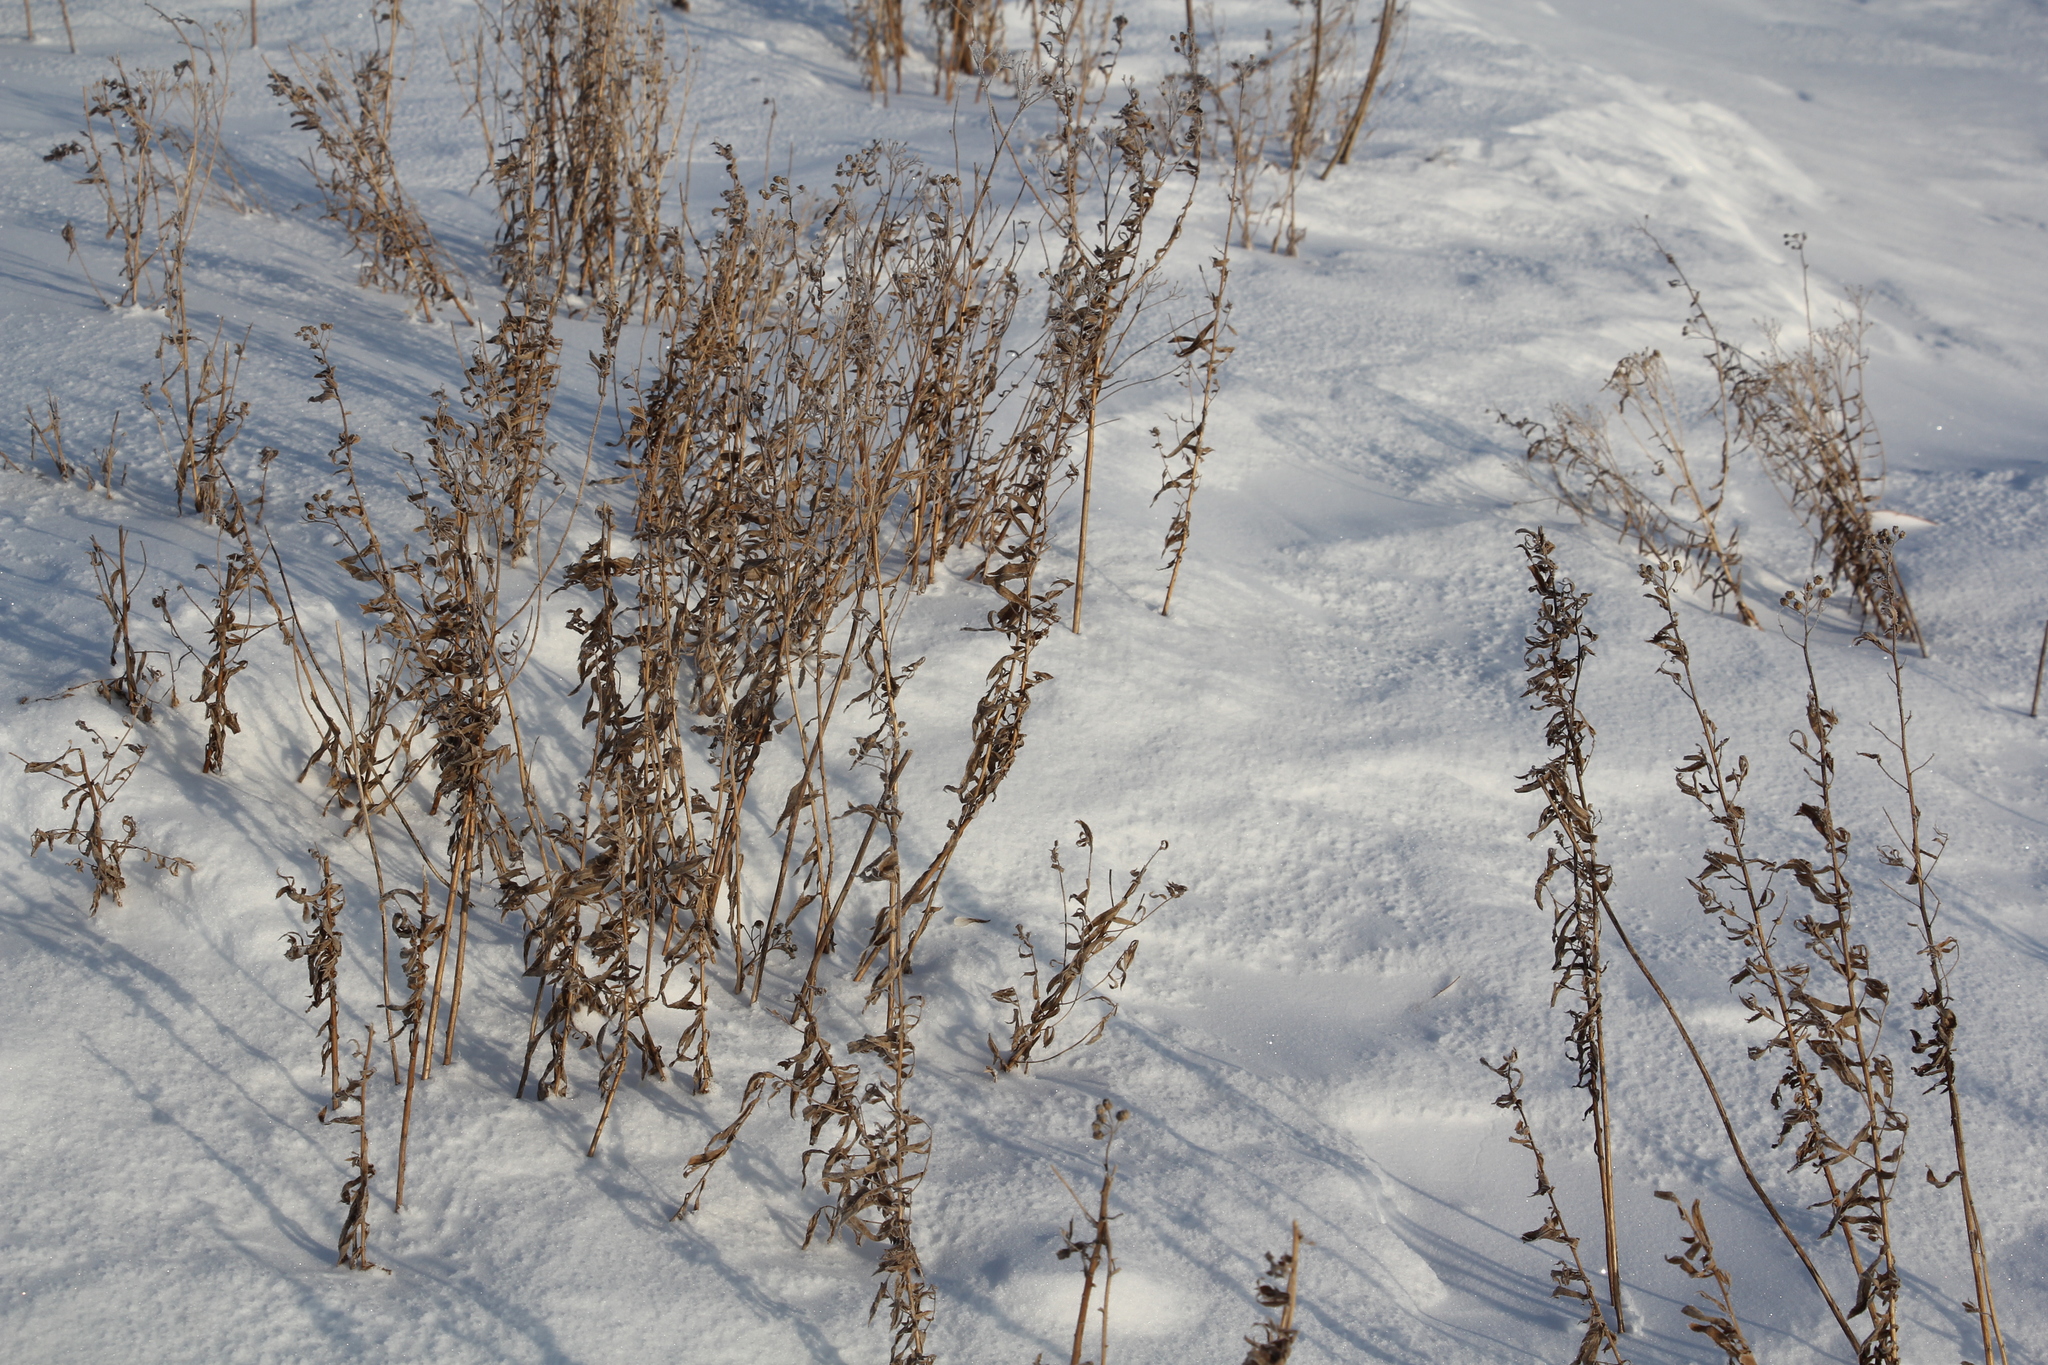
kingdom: Plantae
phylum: Tracheophyta
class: Magnoliopsida
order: Asterales
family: Asteraceae
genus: Achillea
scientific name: Achillea salicifolia
